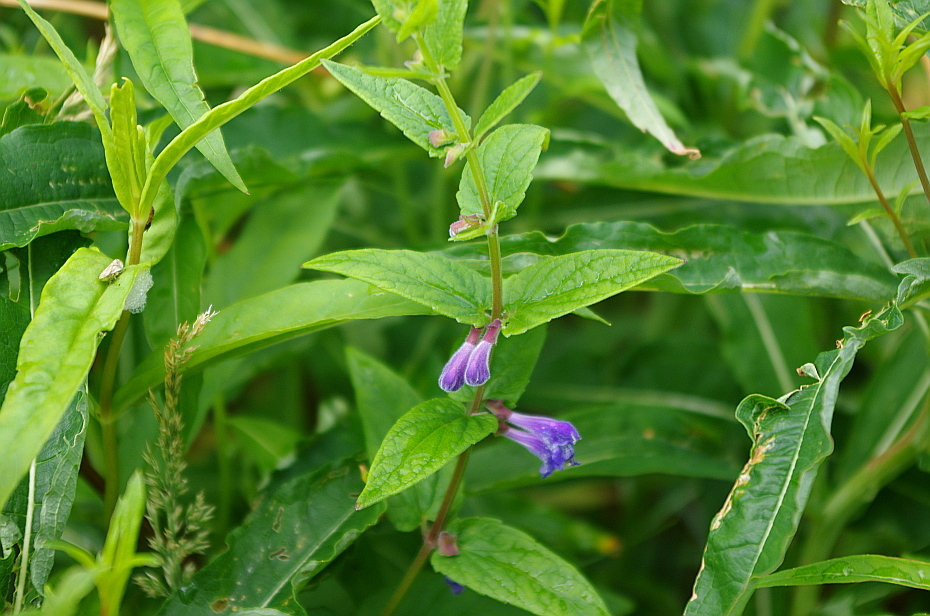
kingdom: Plantae
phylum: Tracheophyta
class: Magnoliopsida
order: Lamiales
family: Lamiaceae
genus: Scutellaria
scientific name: Scutellaria galericulata
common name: Skullcap
